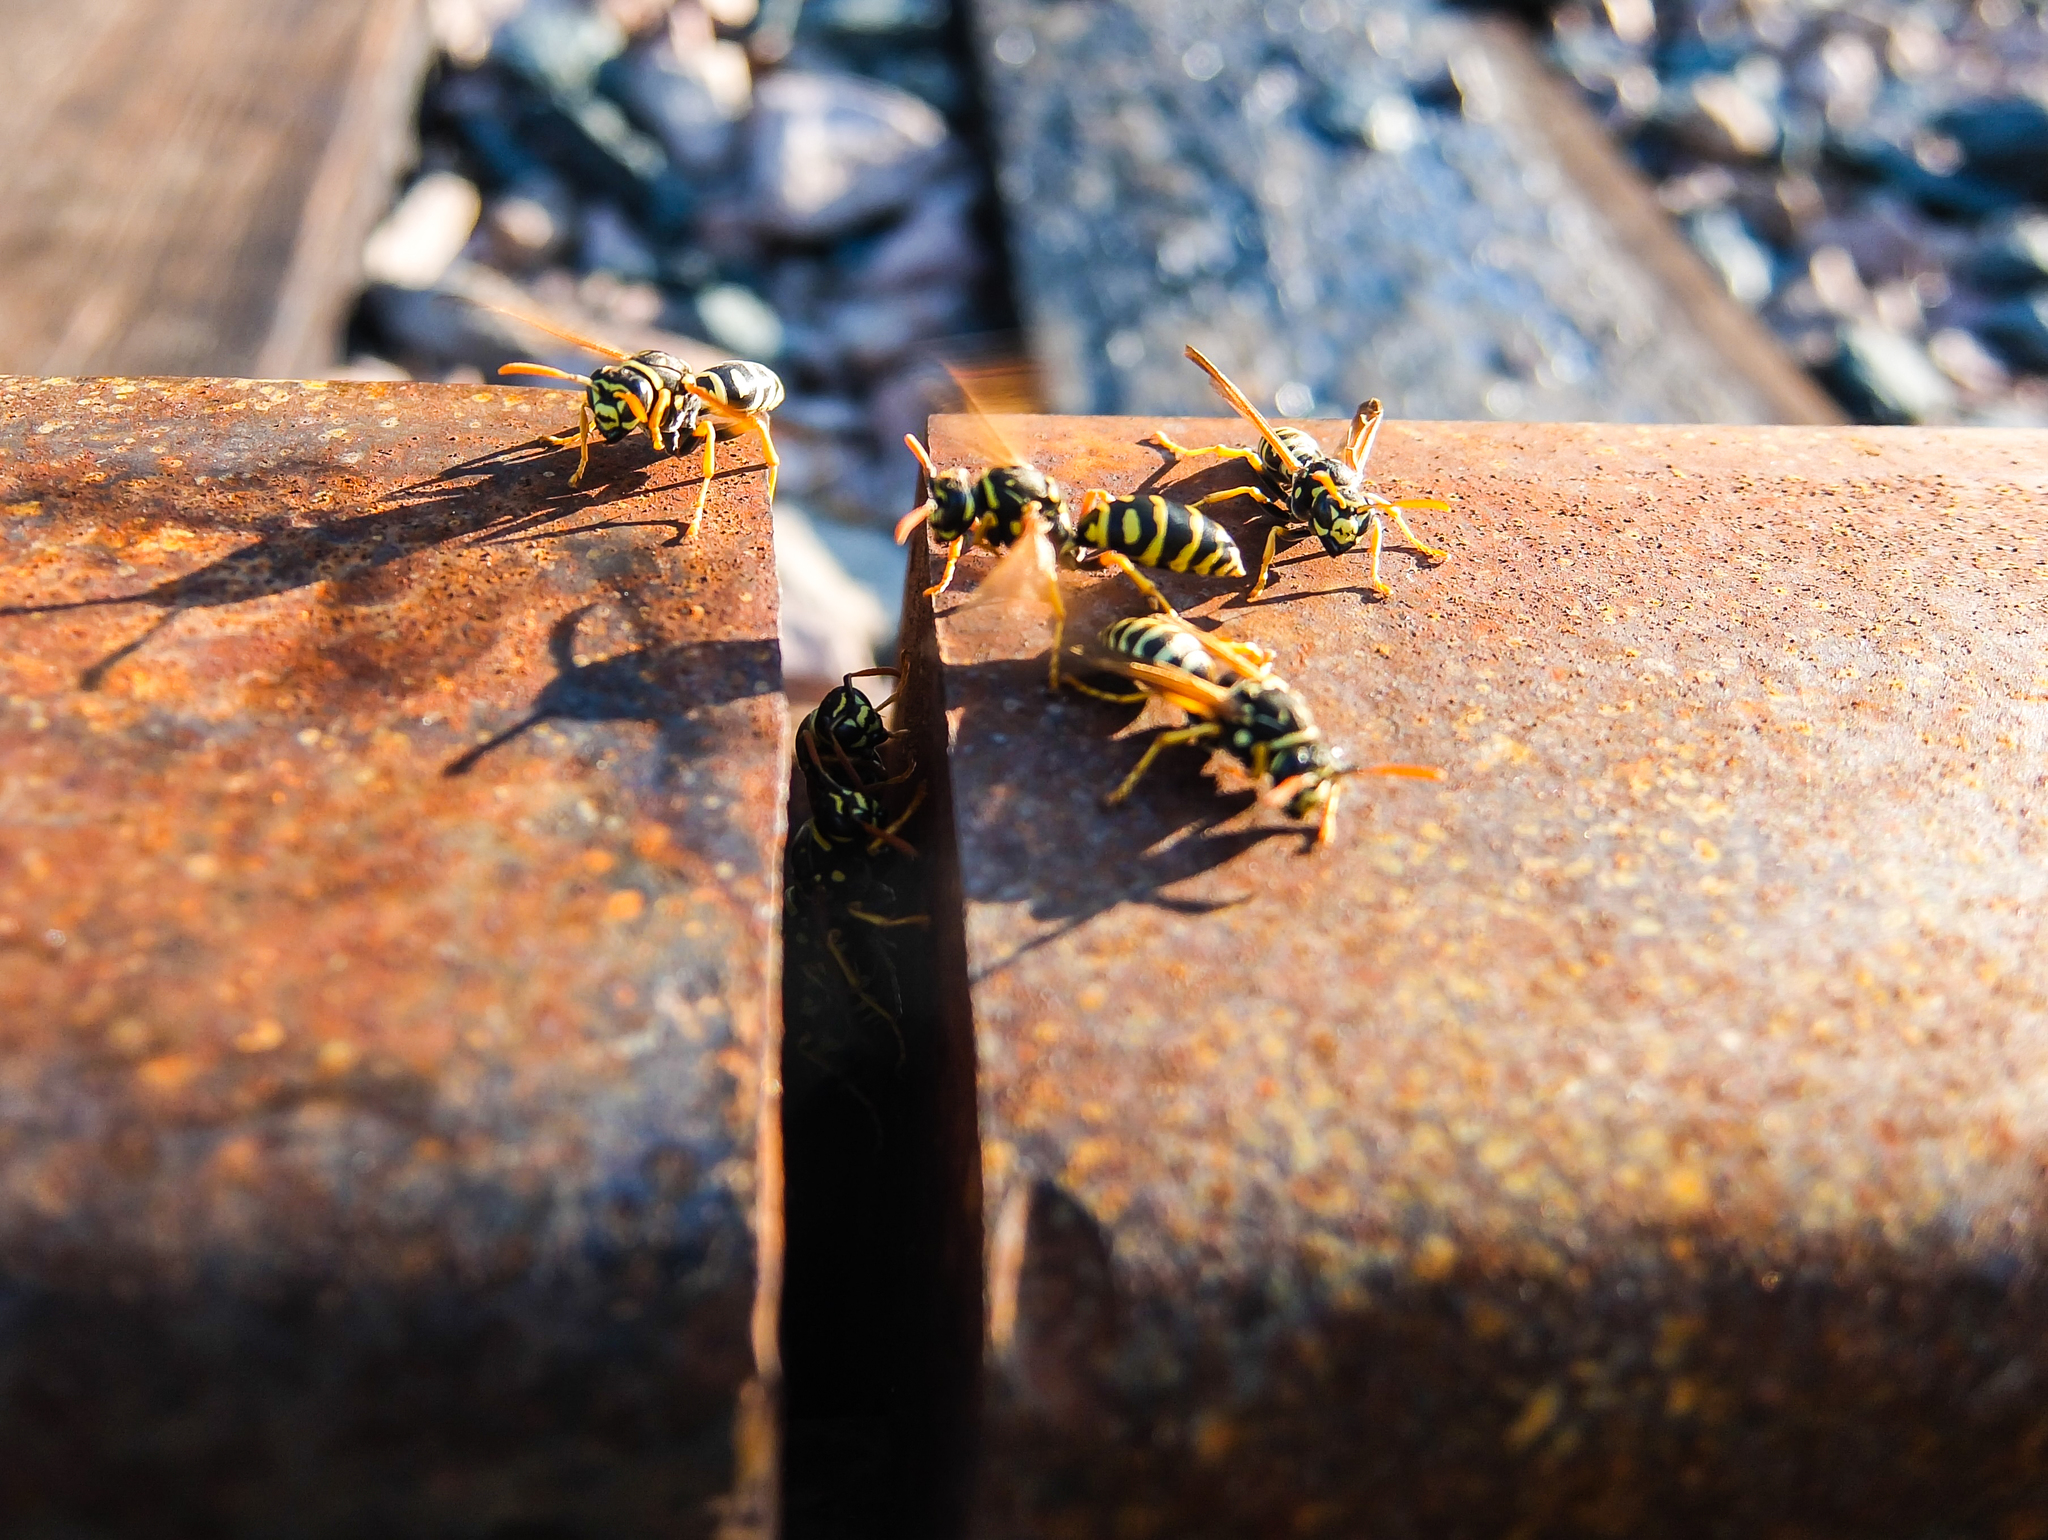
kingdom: Animalia
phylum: Arthropoda
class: Insecta
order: Hymenoptera
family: Eumenidae
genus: Polistes
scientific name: Polistes dominula
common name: Paper wasp
